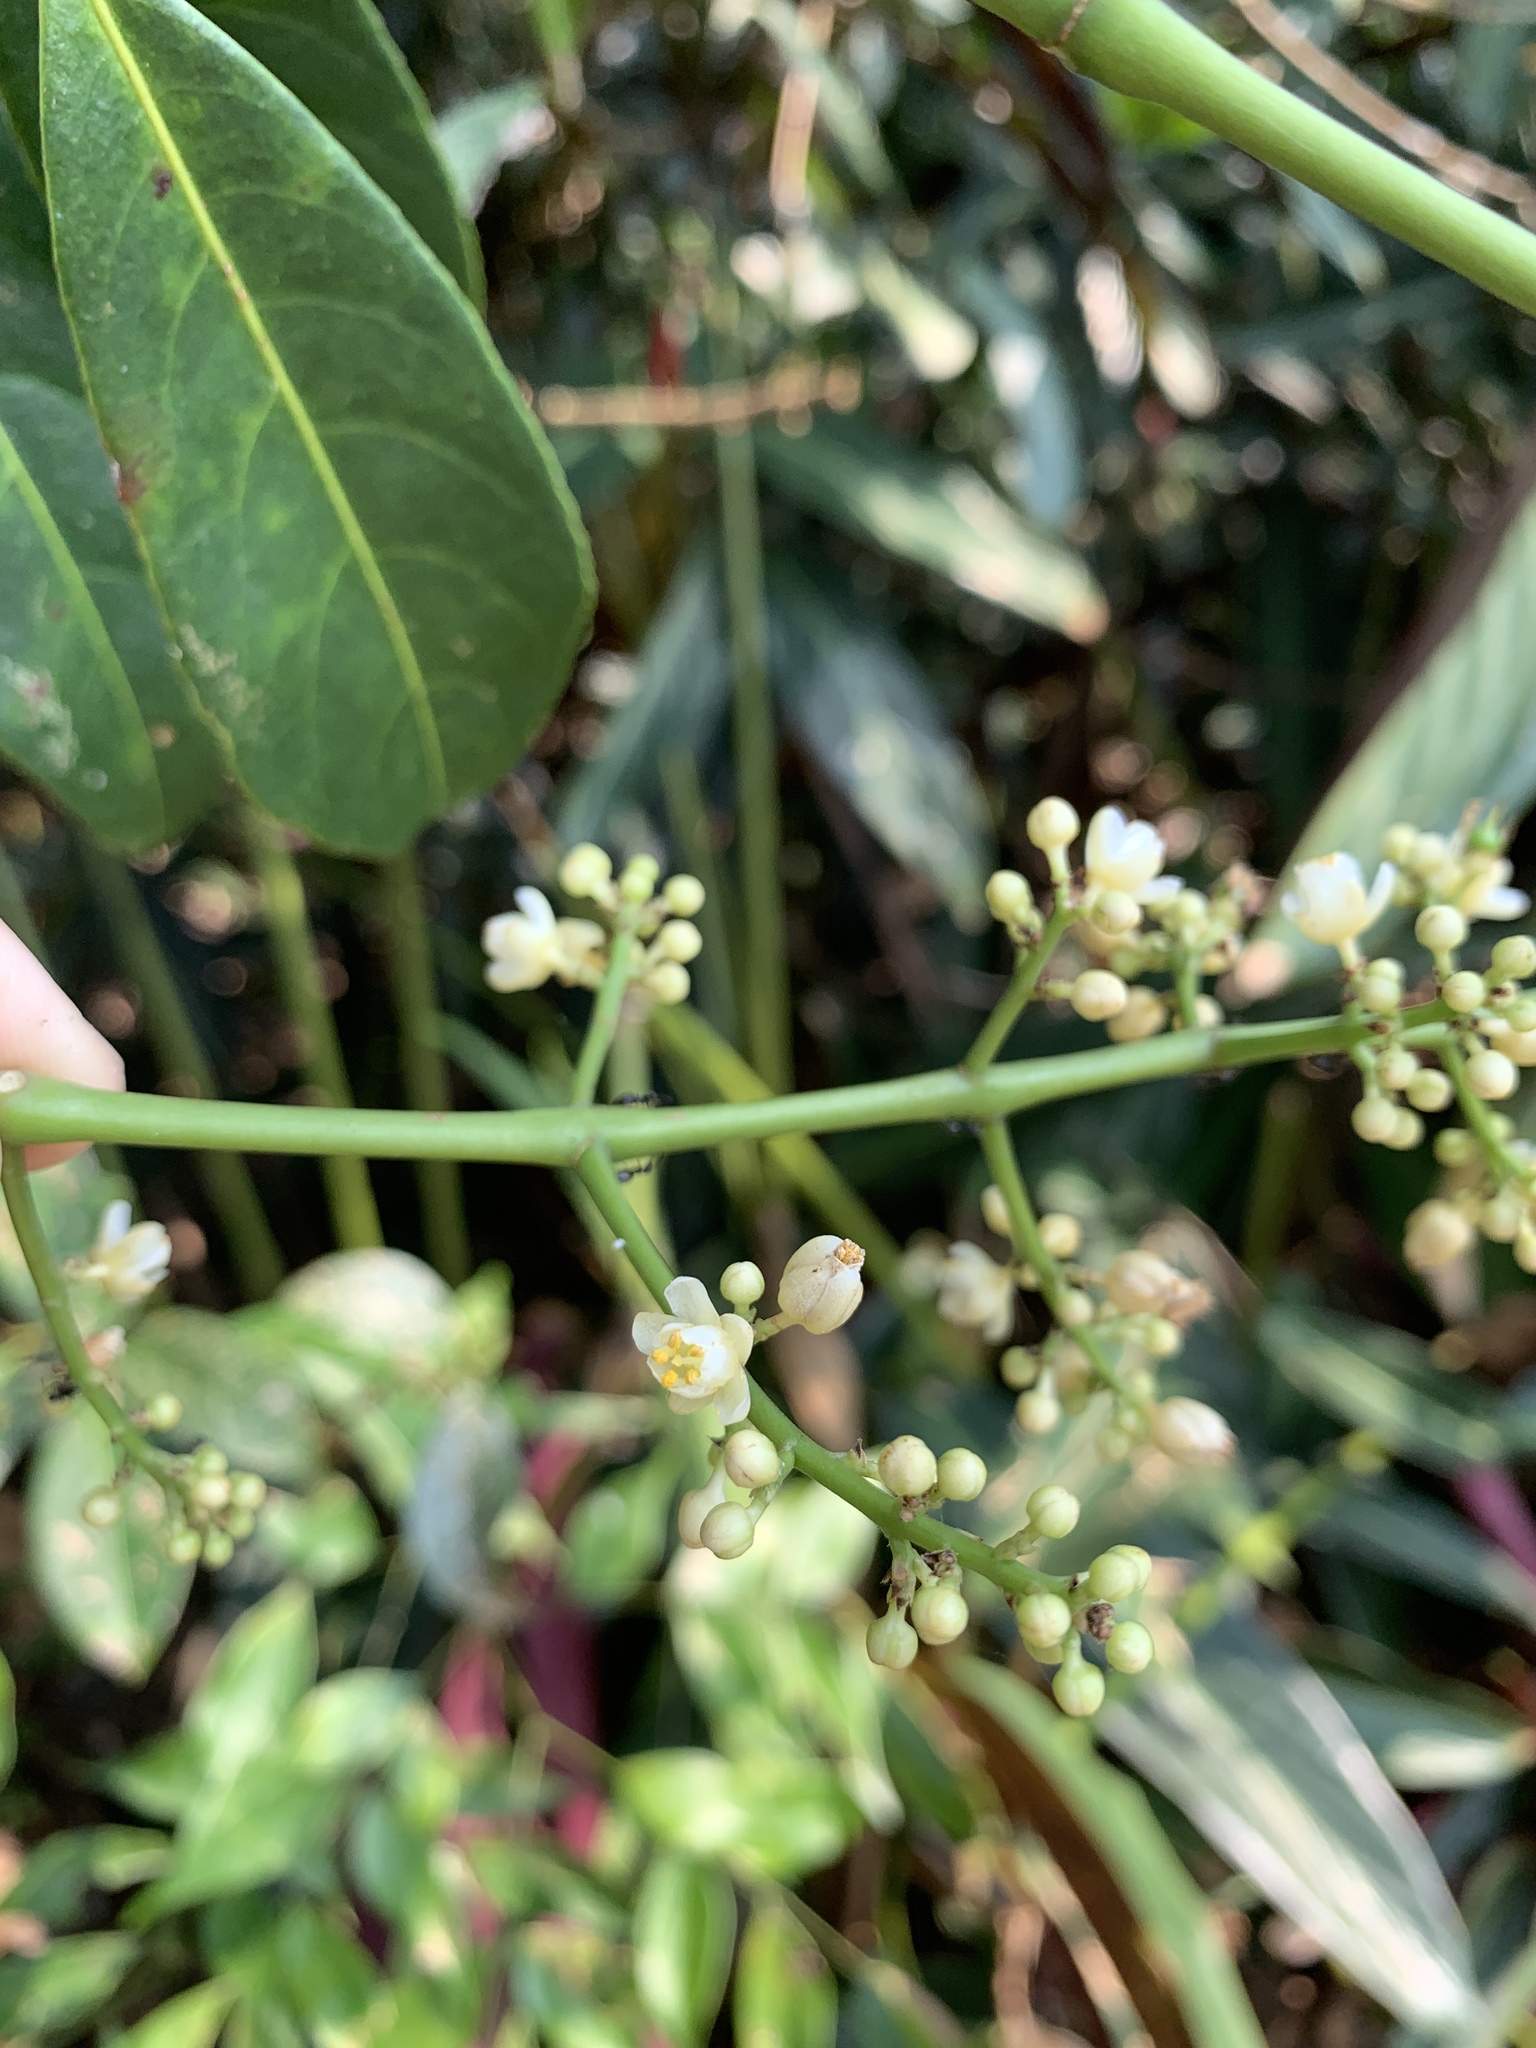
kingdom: Plantae
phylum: Tracheophyta
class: Magnoliopsida
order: Crossosomatales
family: Staphyleaceae
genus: Turpinia
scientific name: Turpinia formosana
